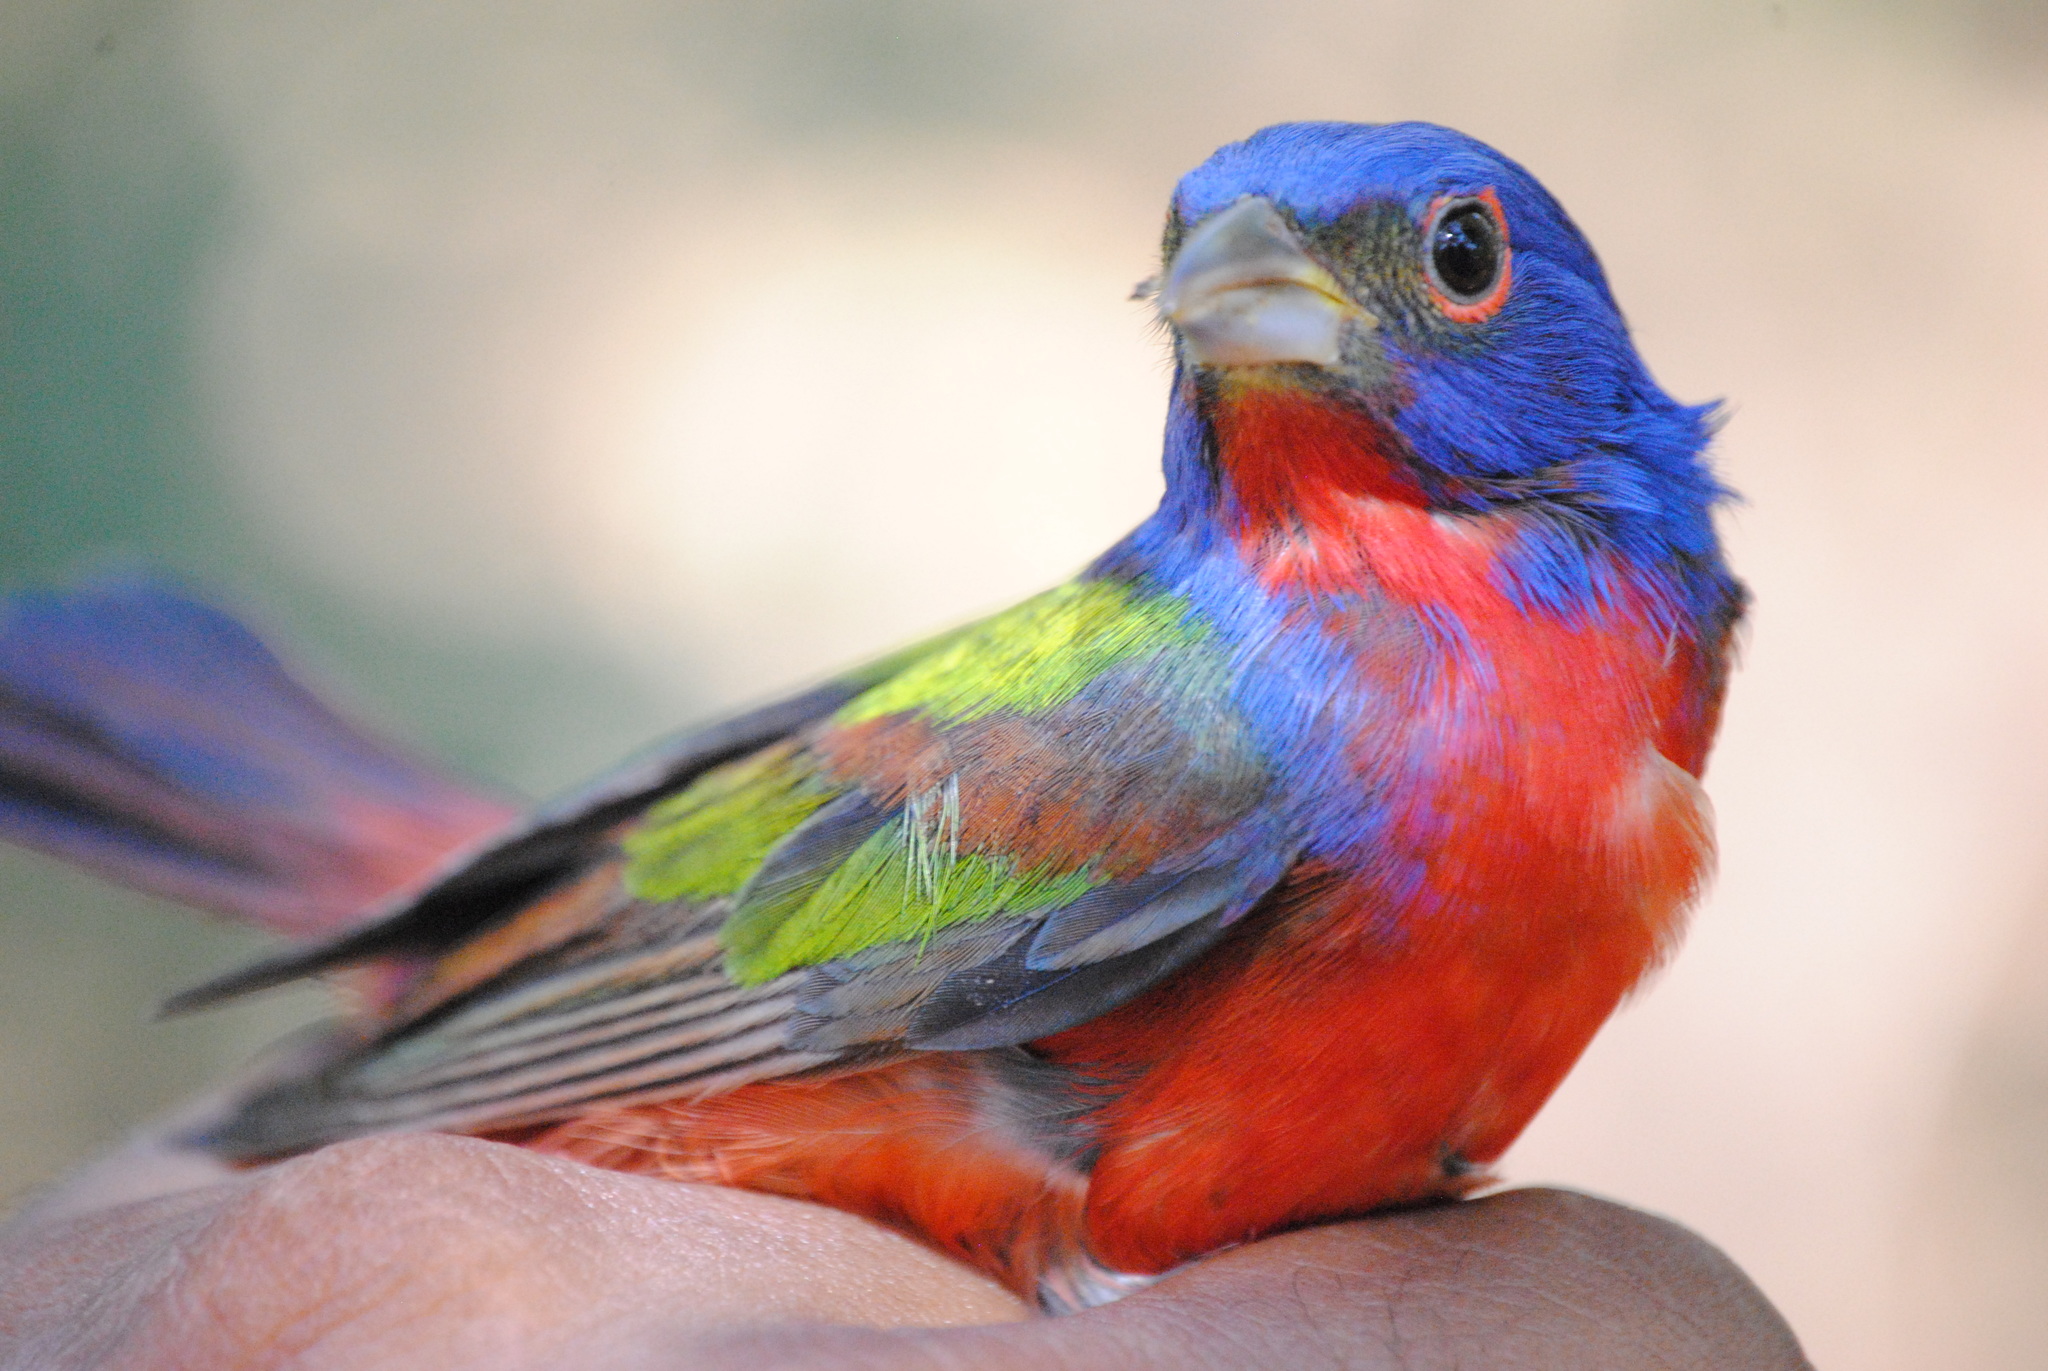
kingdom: Animalia
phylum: Chordata
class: Aves
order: Passeriformes
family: Cardinalidae
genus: Passerina
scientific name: Passerina ciris
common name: Painted bunting
